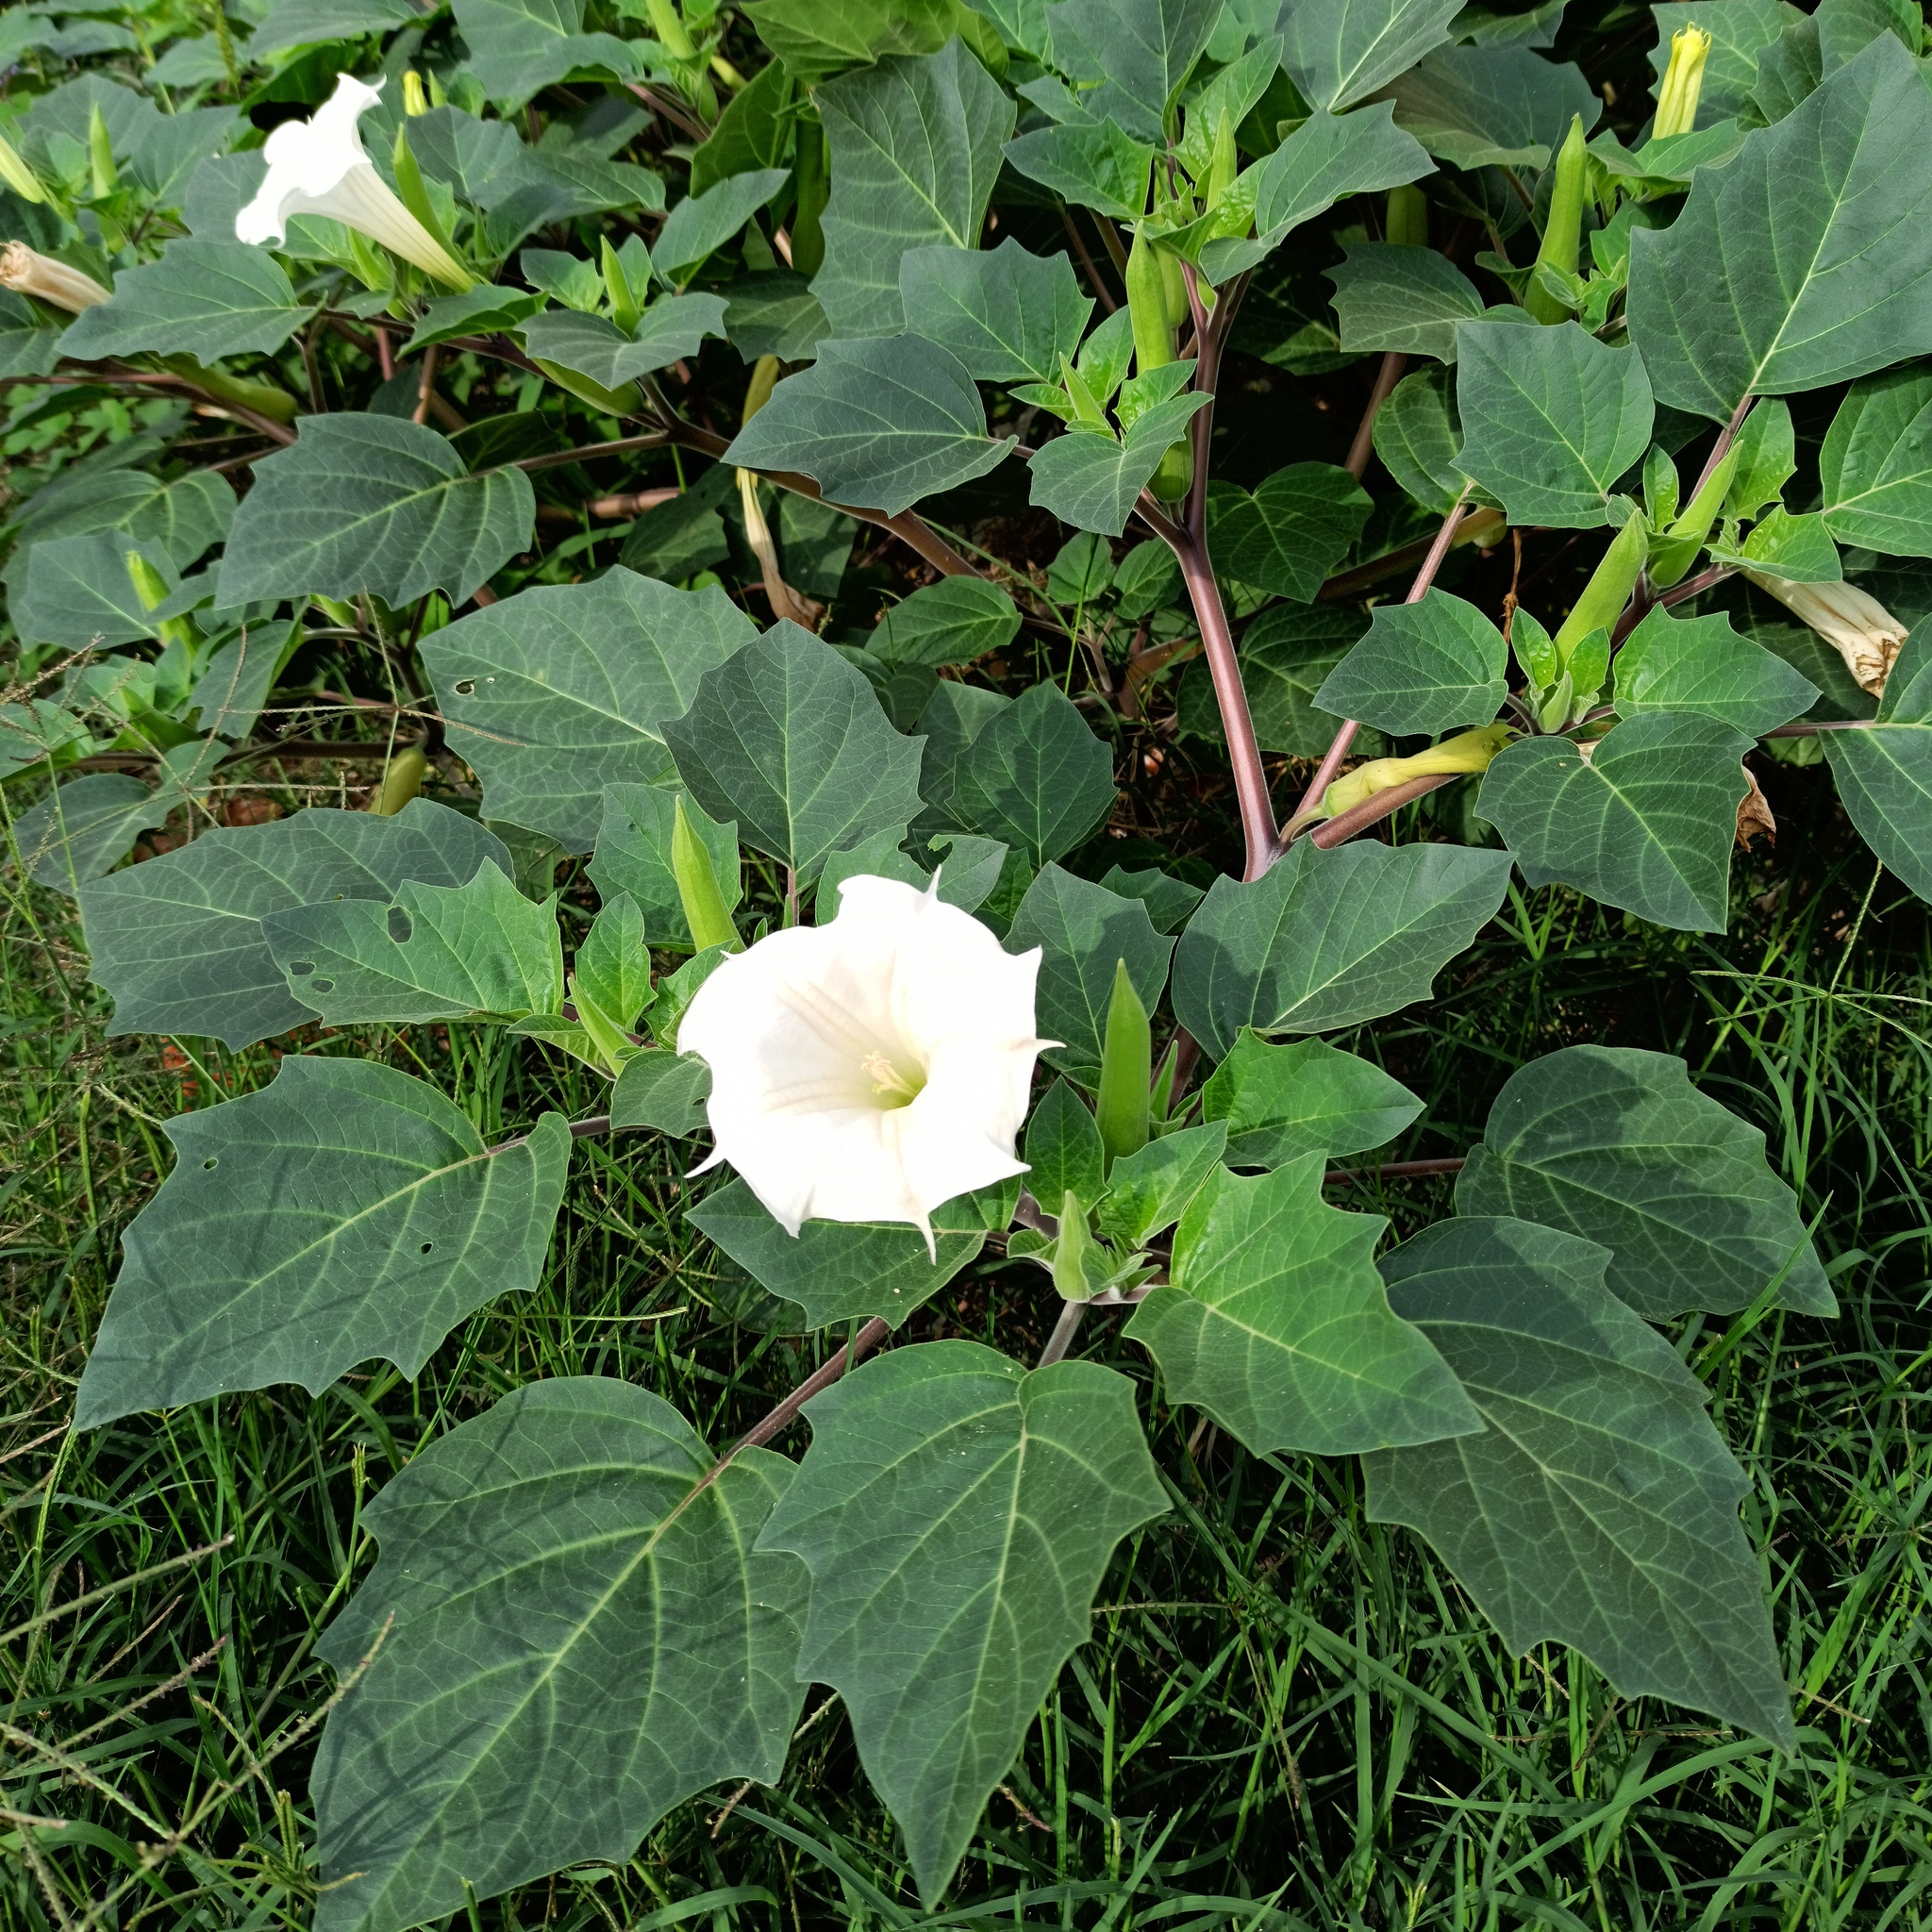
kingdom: Plantae
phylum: Tracheophyta
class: Magnoliopsida
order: Solanales
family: Solanaceae
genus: Datura
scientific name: Datura innoxia
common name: Downy thorn-apple
